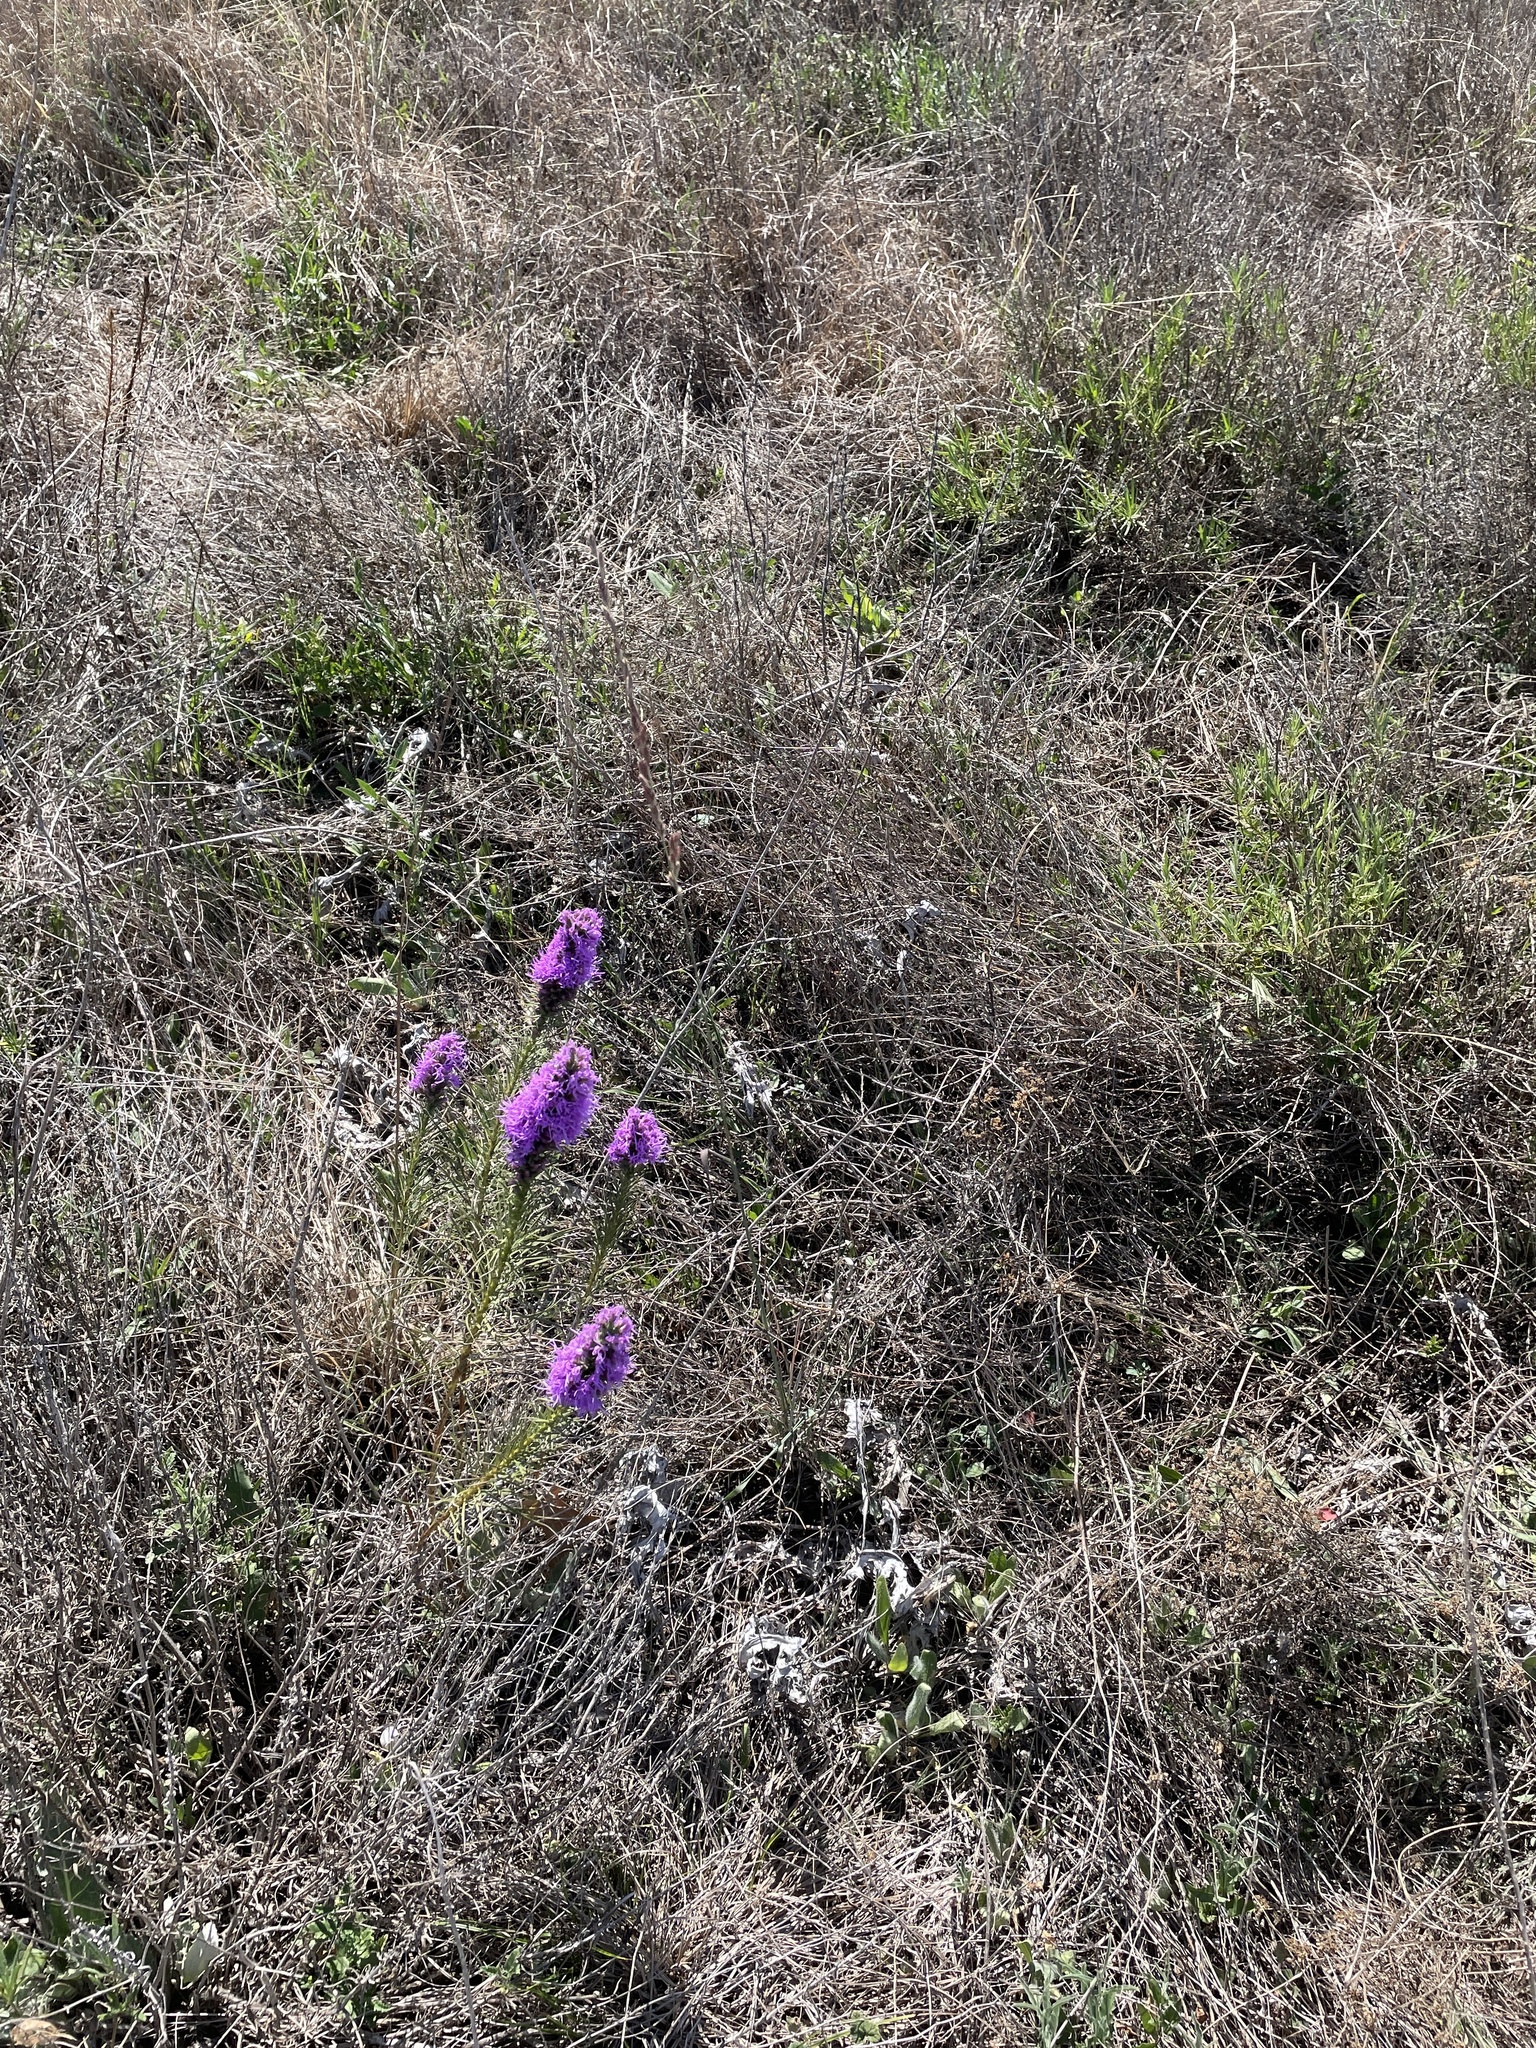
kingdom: Plantae
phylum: Tracheophyta
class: Liliopsida
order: Poales
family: Poaceae
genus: Tridentopsis
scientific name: Tridentopsis mutica
